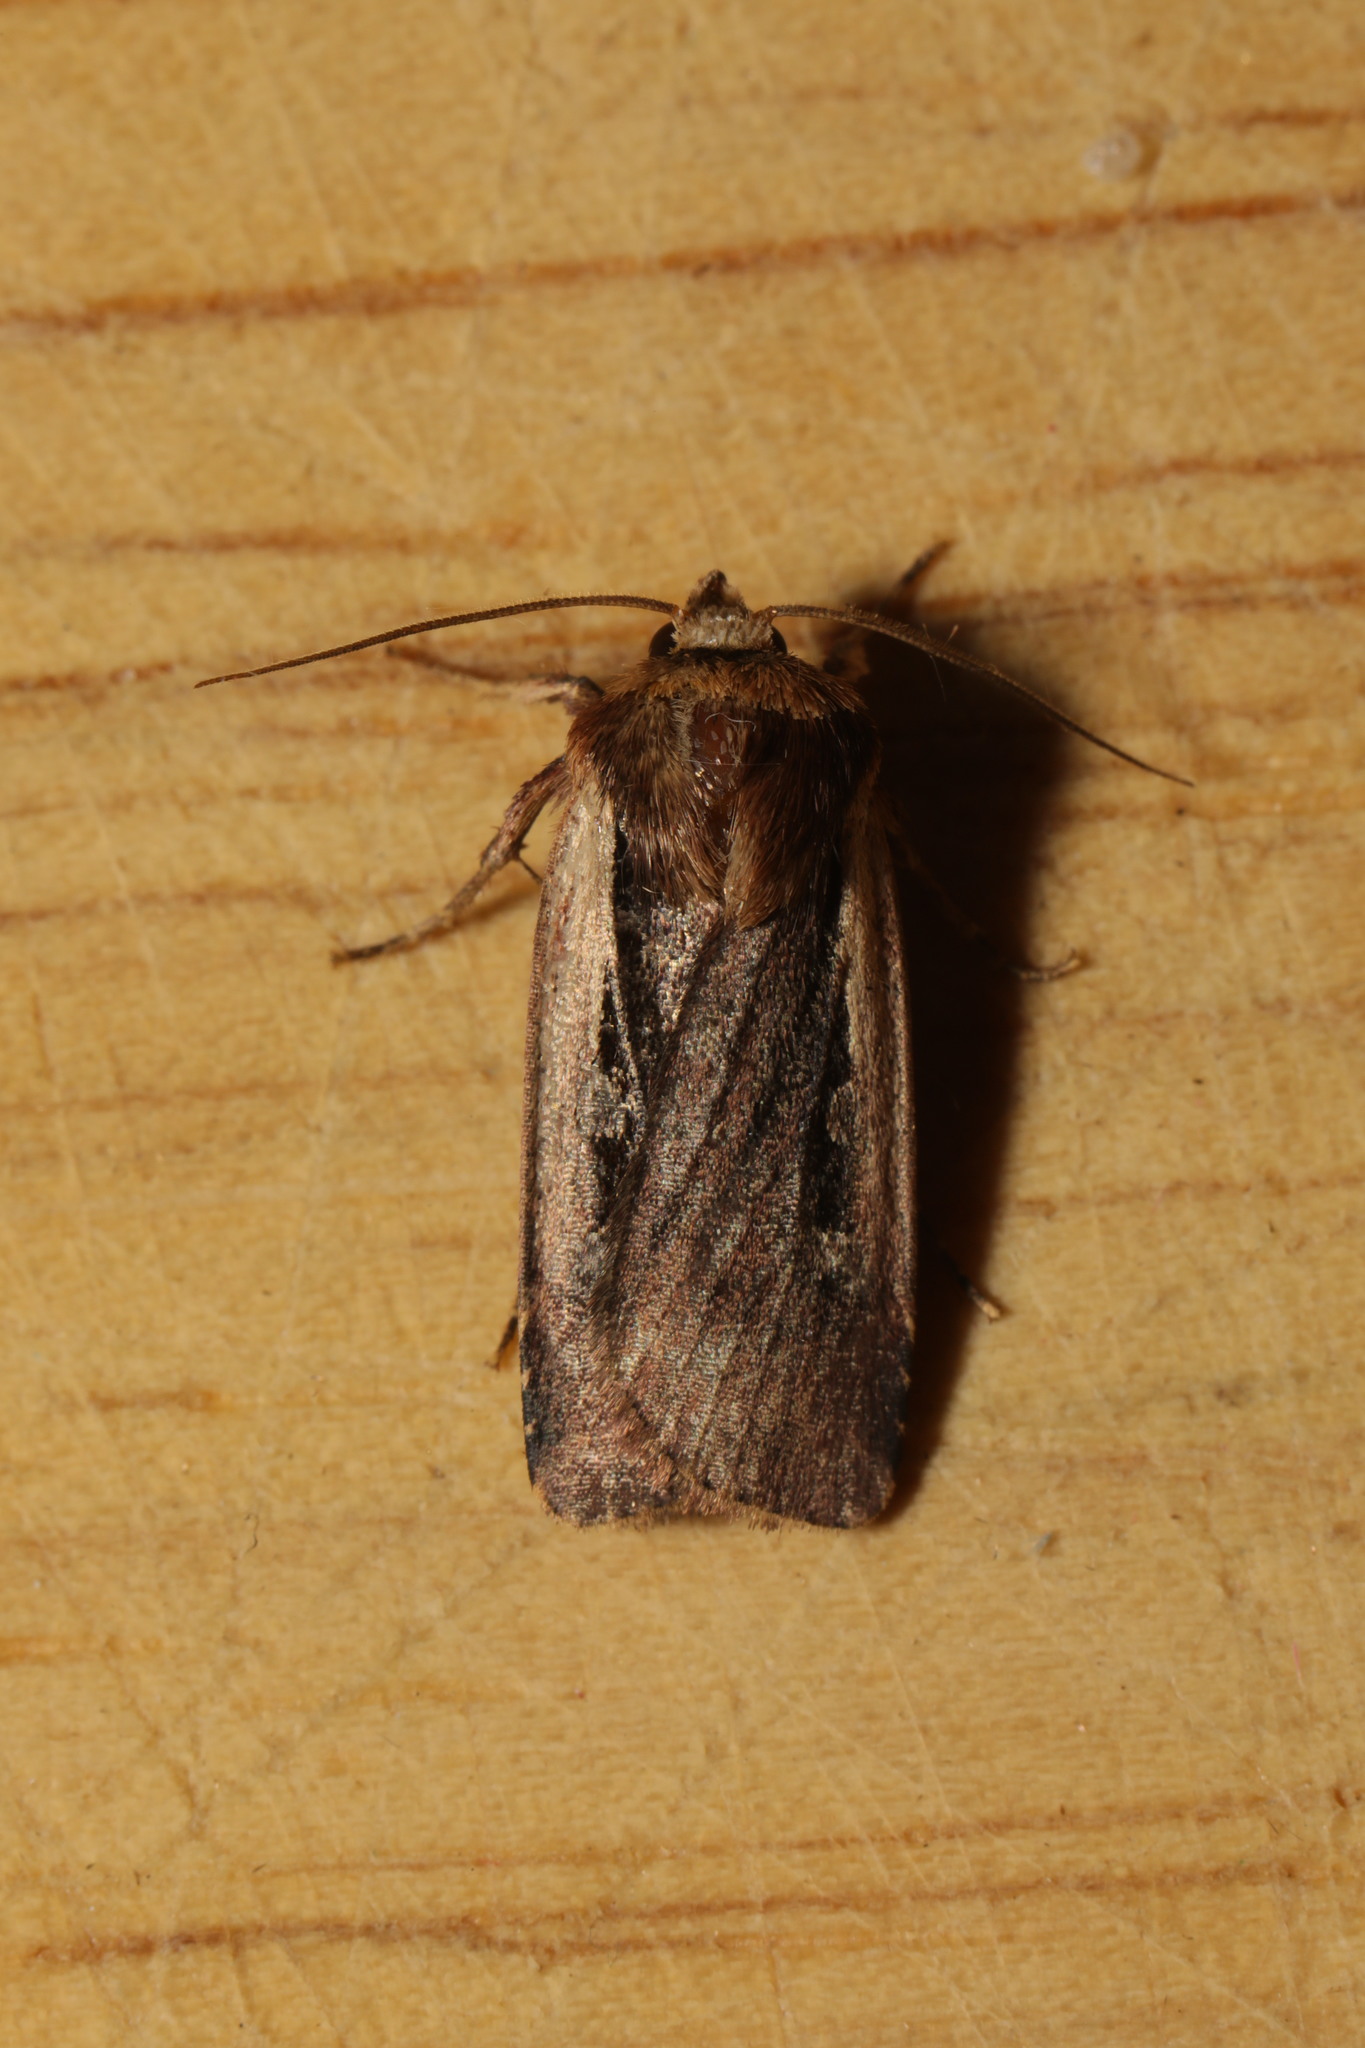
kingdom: Animalia
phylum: Arthropoda
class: Insecta
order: Lepidoptera
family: Noctuidae
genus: Ochropleura
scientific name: Ochropleura plecta
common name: Flame shoulder
